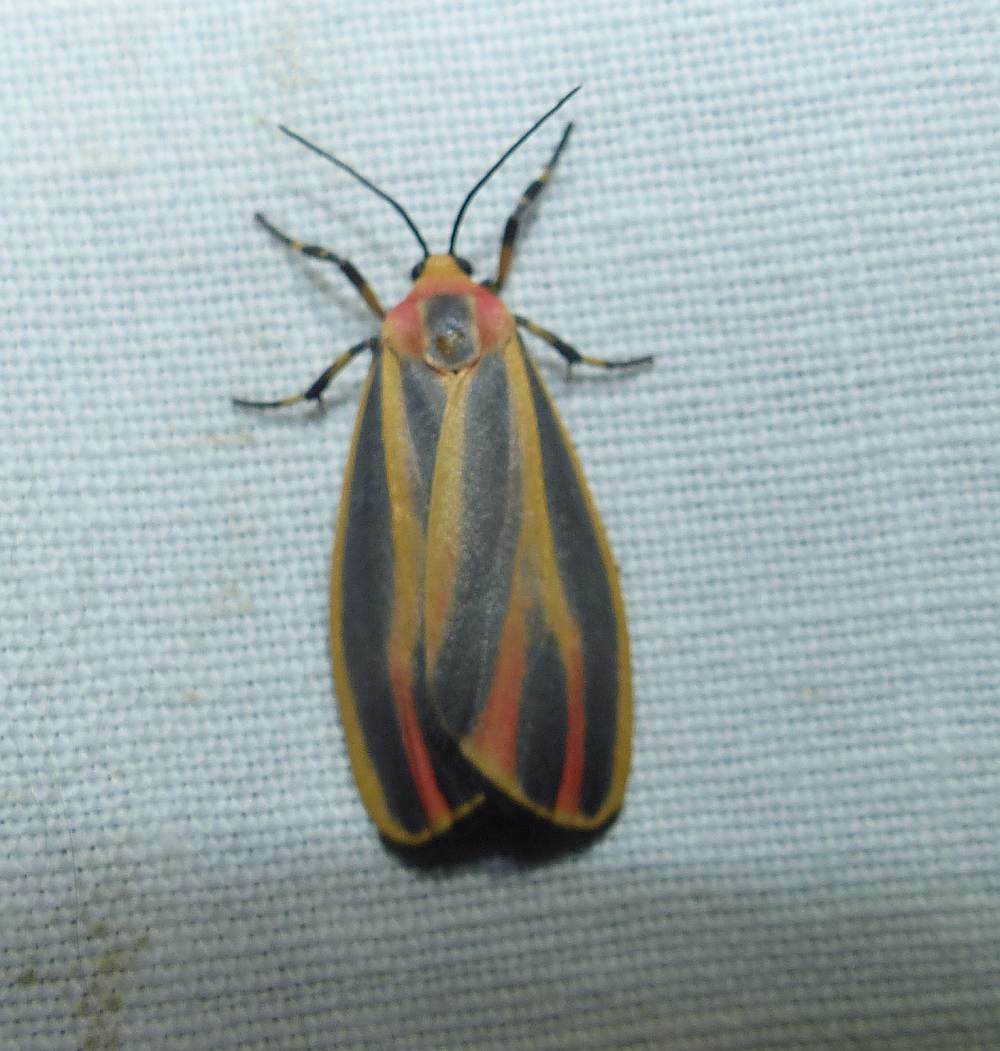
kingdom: Animalia
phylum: Arthropoda
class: Insecta
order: Lepidoptera
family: Erebidae
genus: Hypoprepia
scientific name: Hypoprepia fucosa
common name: Painted lichen moth
